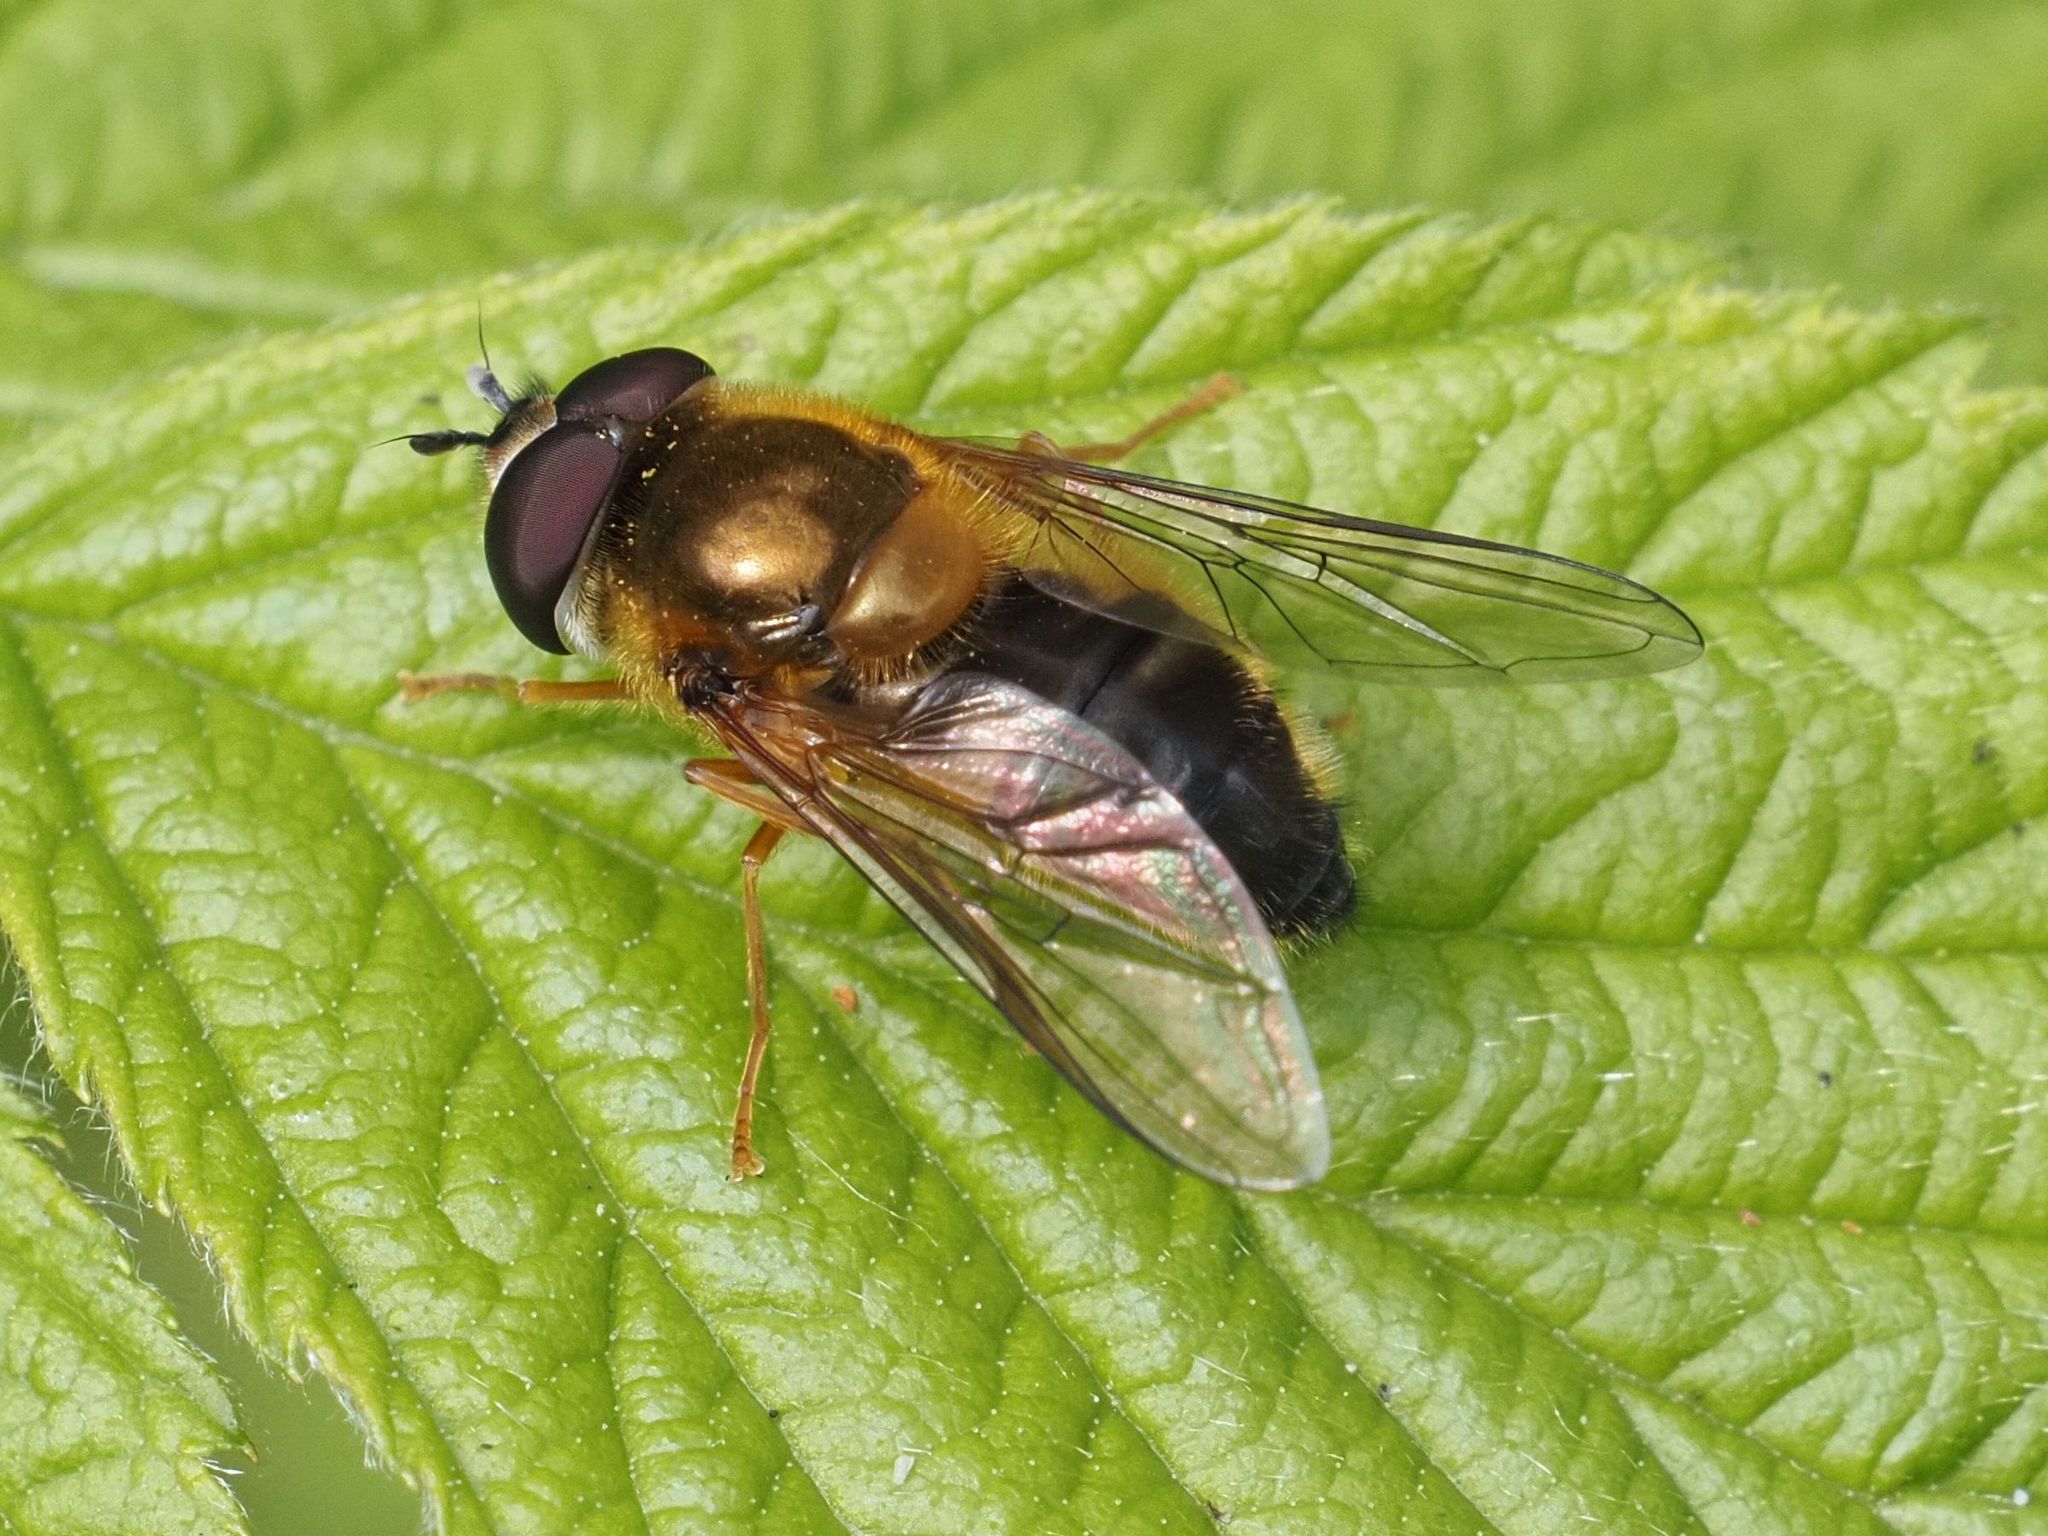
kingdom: Animalia
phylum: Arthropoda
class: Insecta
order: Diptera
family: Syrphidae
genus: Epistrophe
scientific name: Epistrophe eligans
